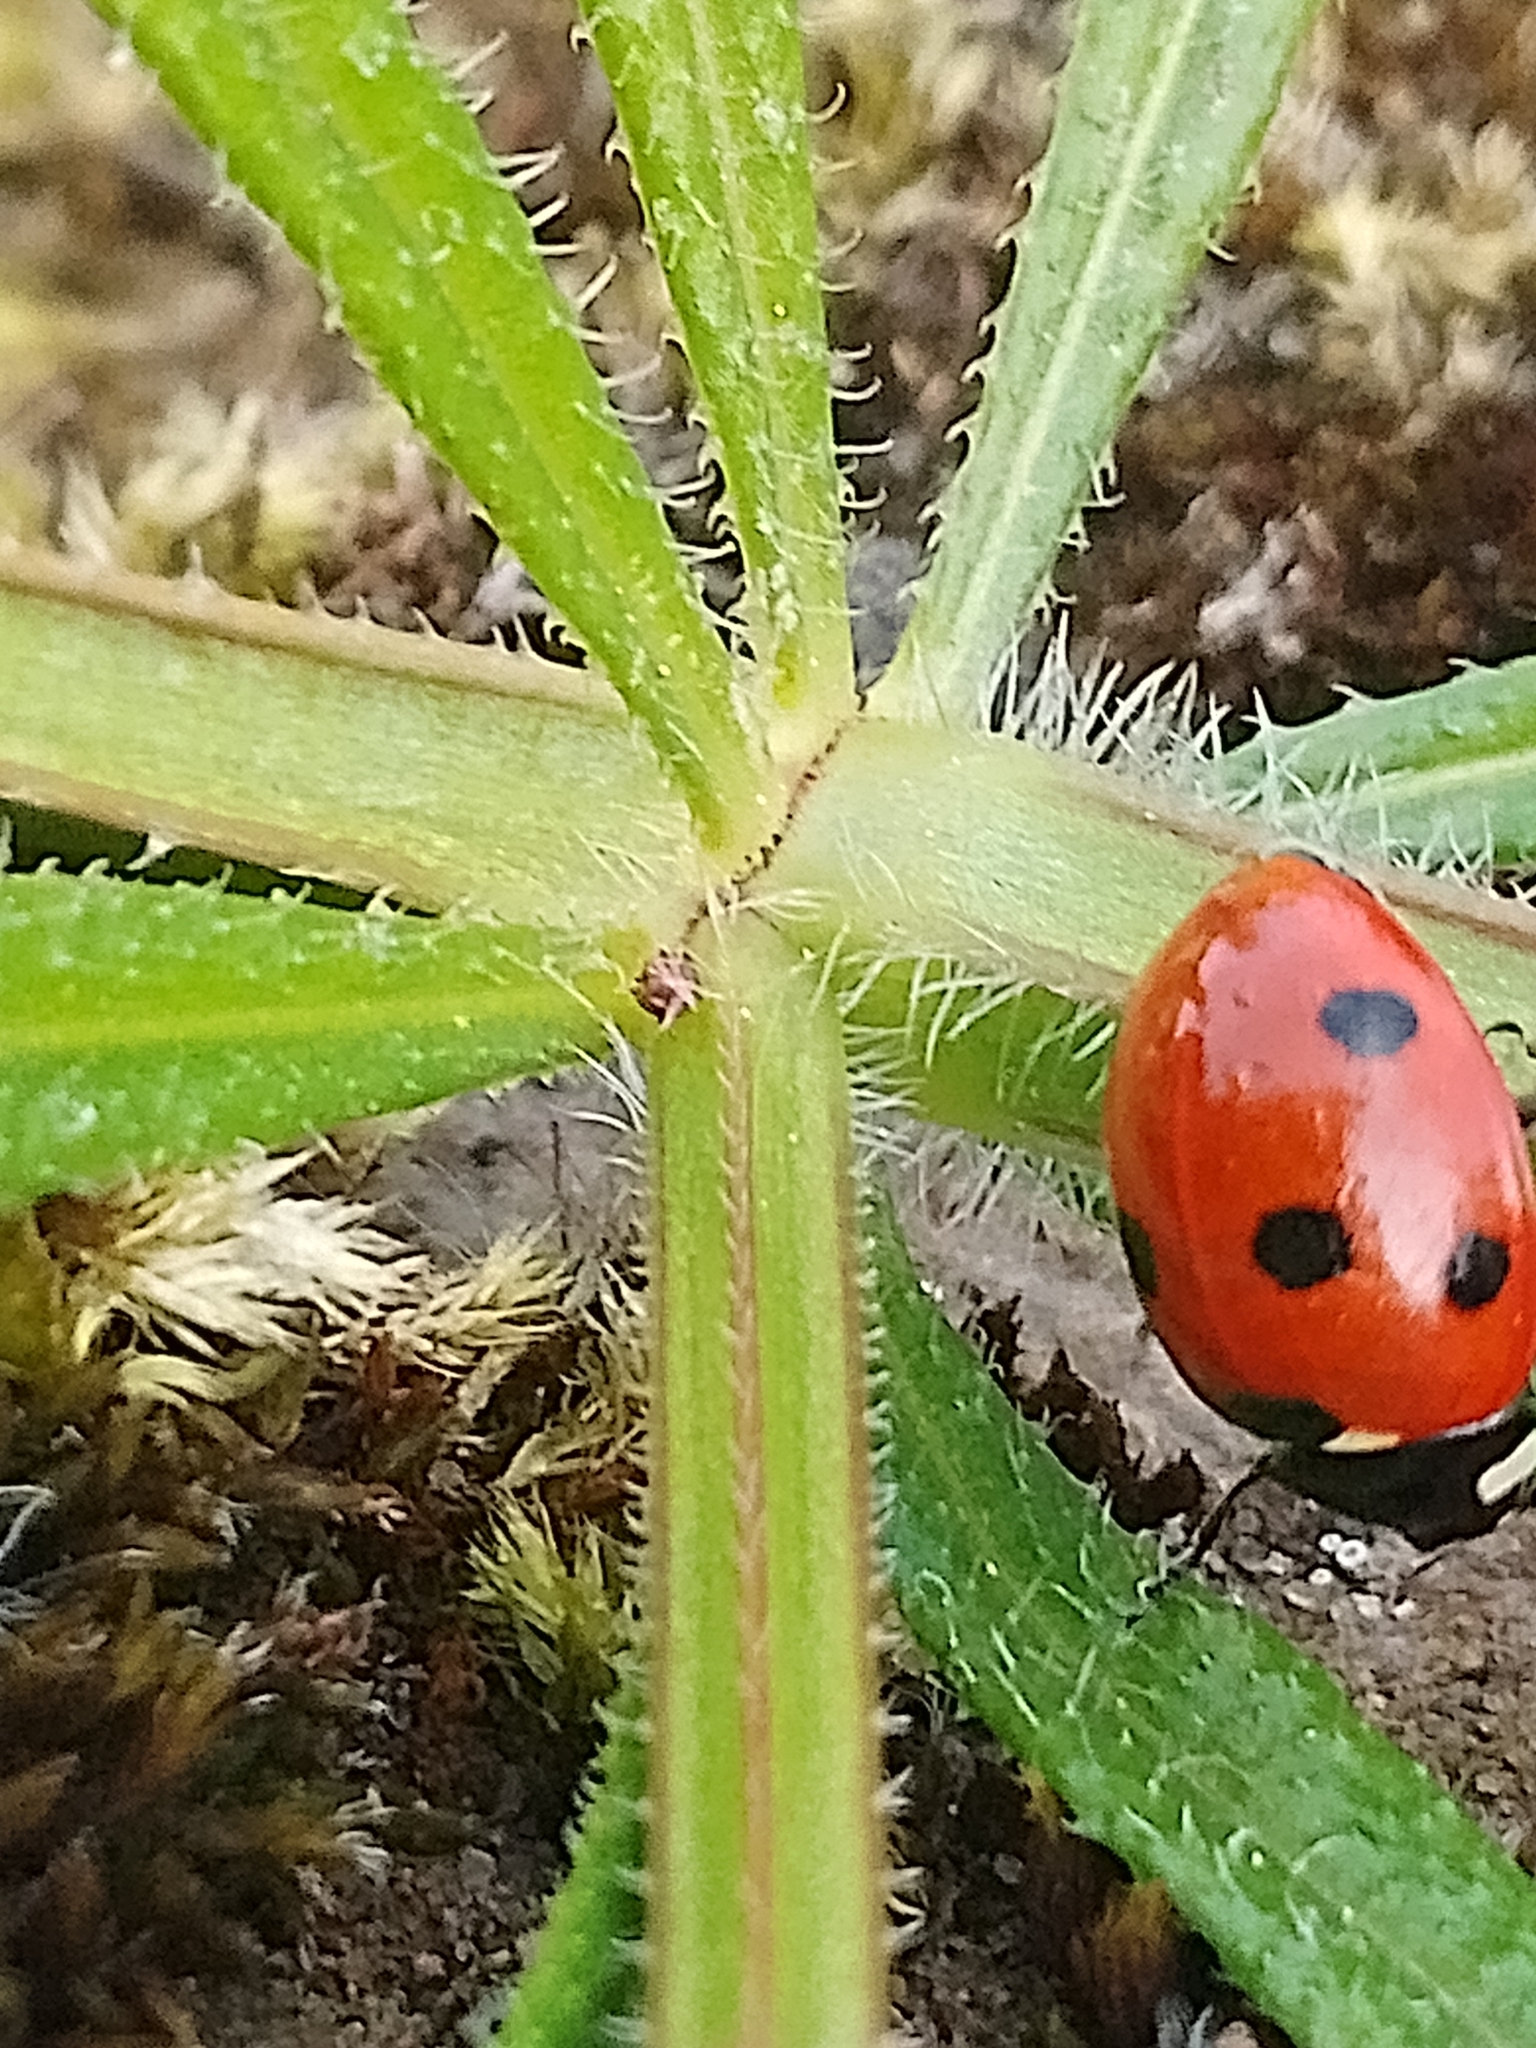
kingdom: Animalia
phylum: Arthropoda
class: Insecta
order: Coleoptera
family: Coccinellidae
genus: Coccinella
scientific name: Coccinella septempunctata
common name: Sevenspotted lady beetle
